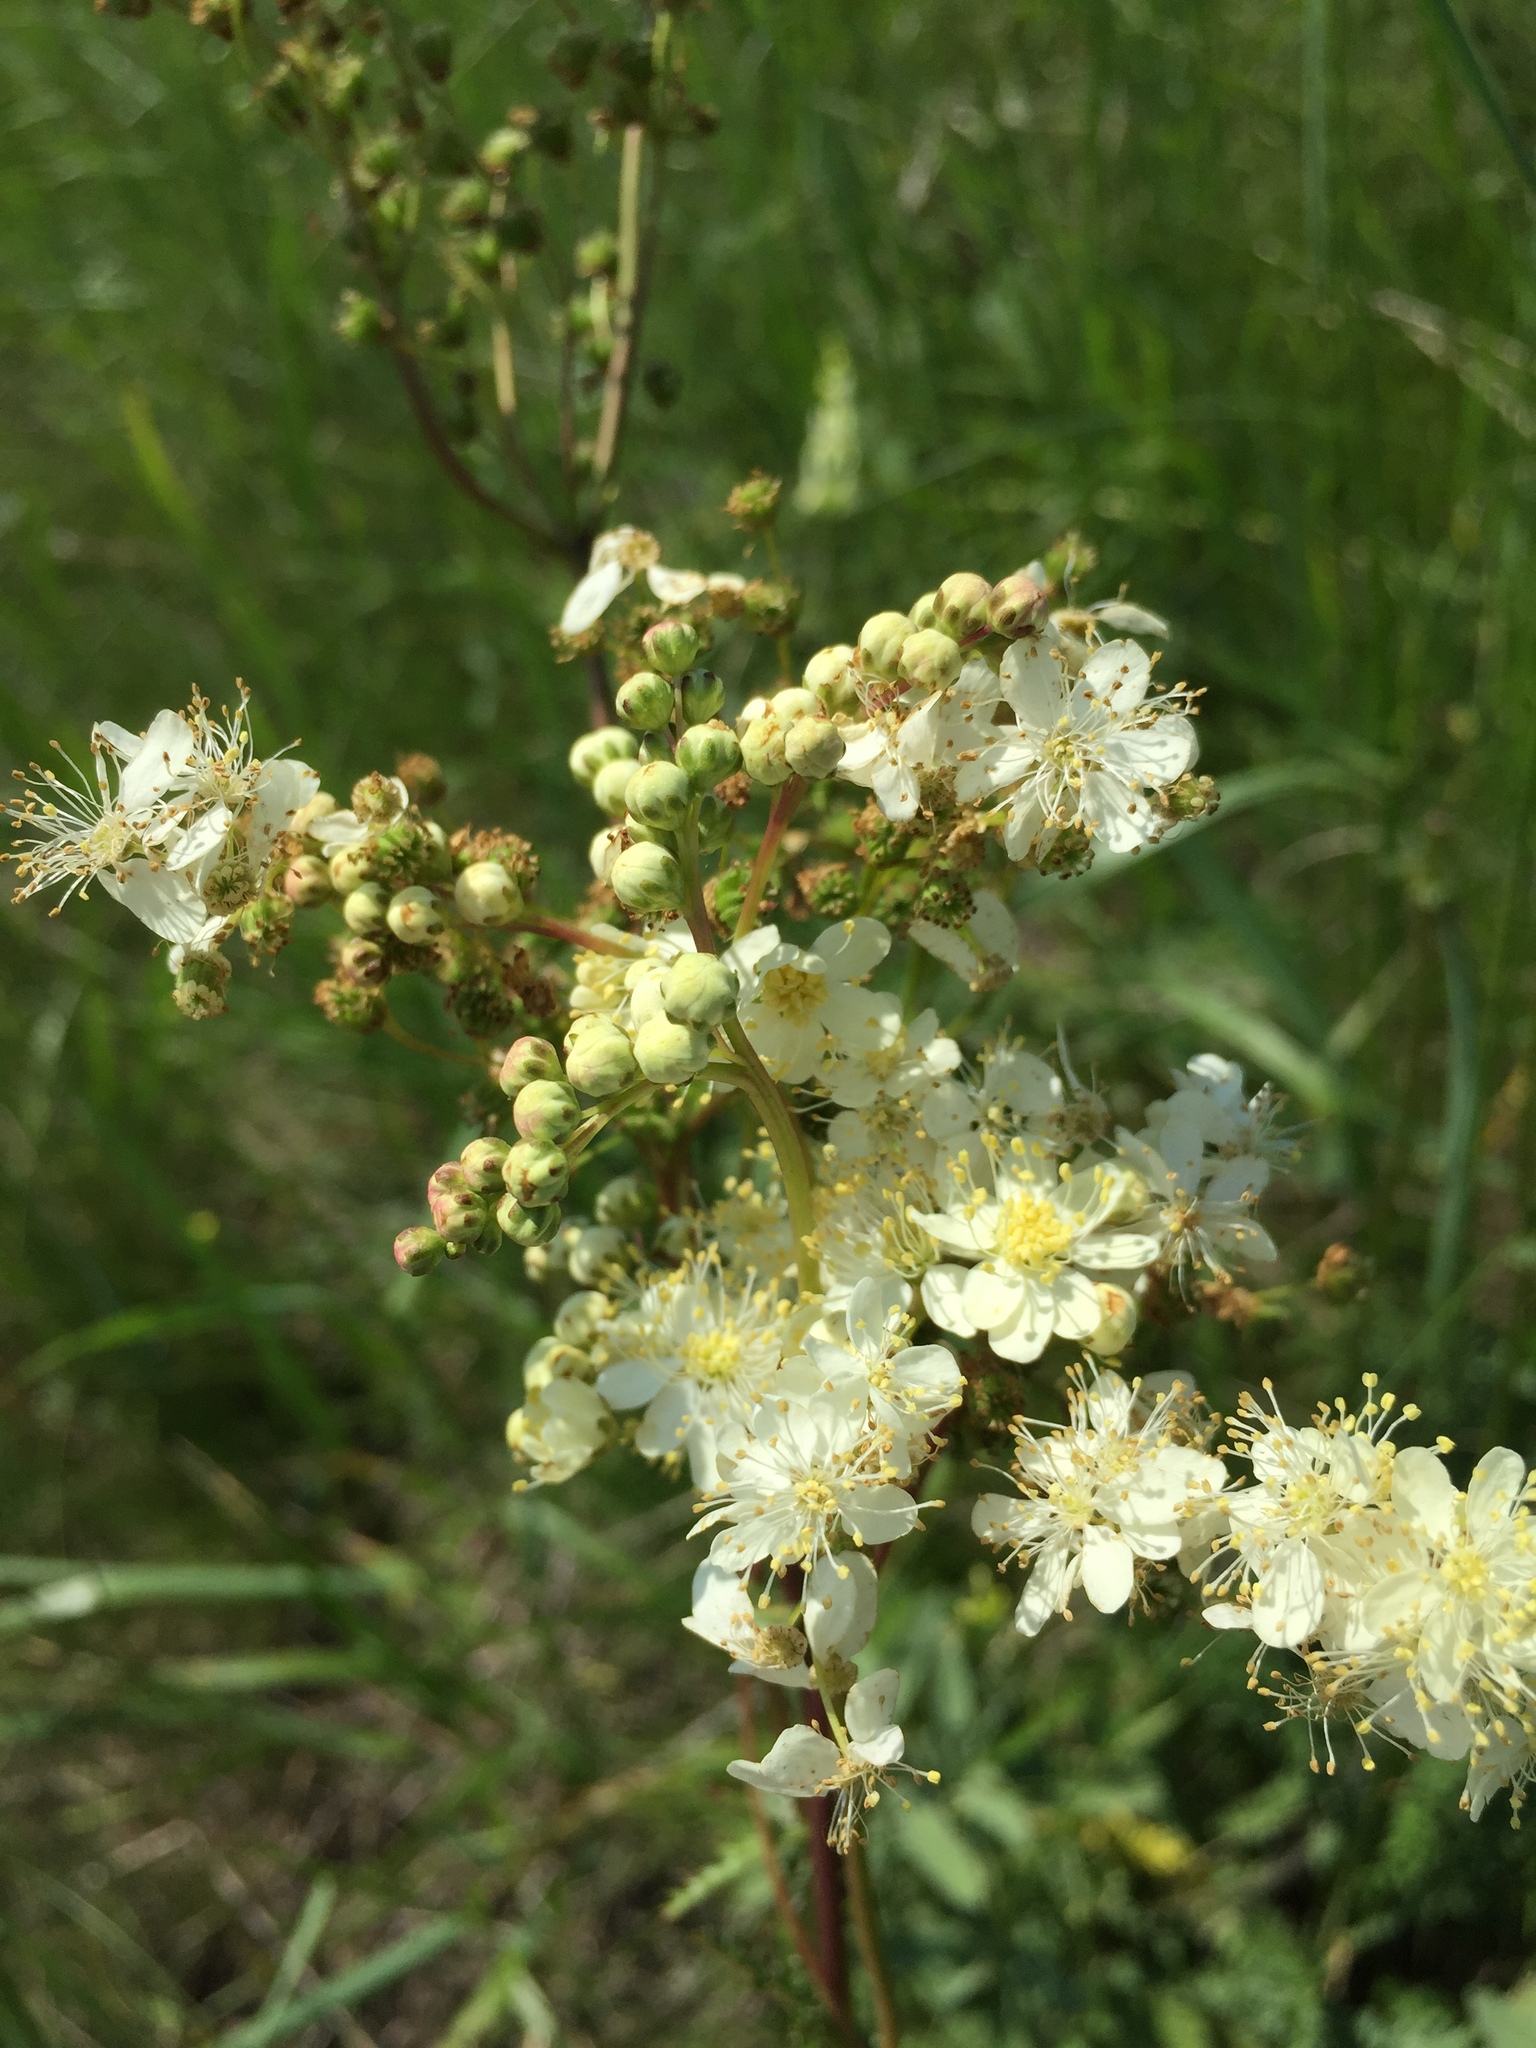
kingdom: Plantae
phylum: Tracheophyta
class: Magnoliopsida
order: Rosales
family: Rosaceae
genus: Filipendula
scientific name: Filipendula vulgaris
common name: Dropwort
